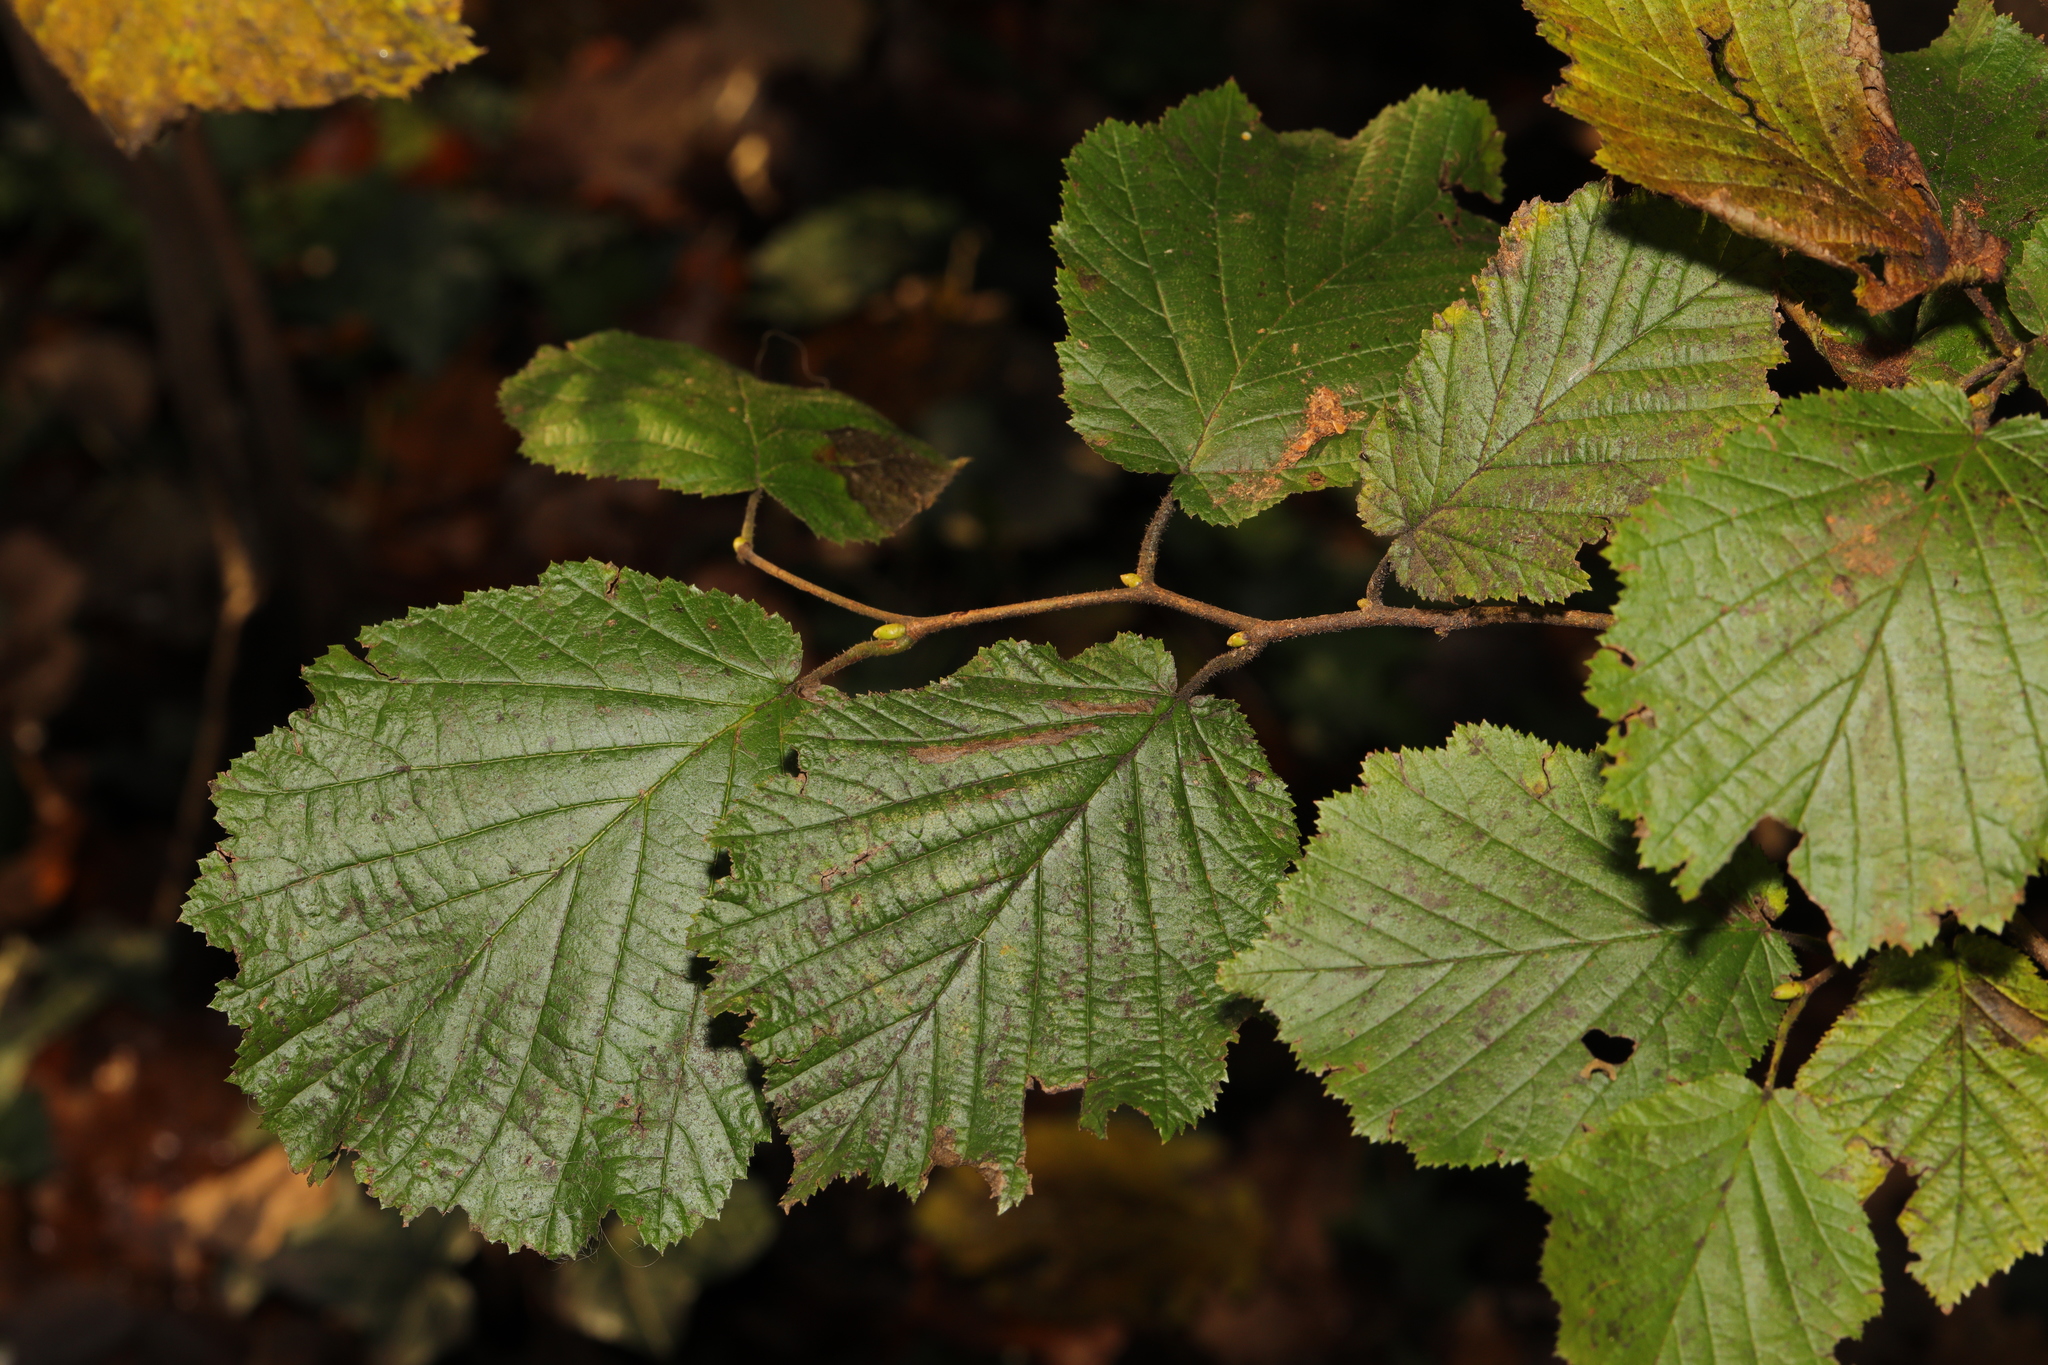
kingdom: Plantae
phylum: Tracheophyta
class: Magnoliopsida
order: Fagales
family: Betulaceae
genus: Corylus
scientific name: Corylus avellana
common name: European hazel
